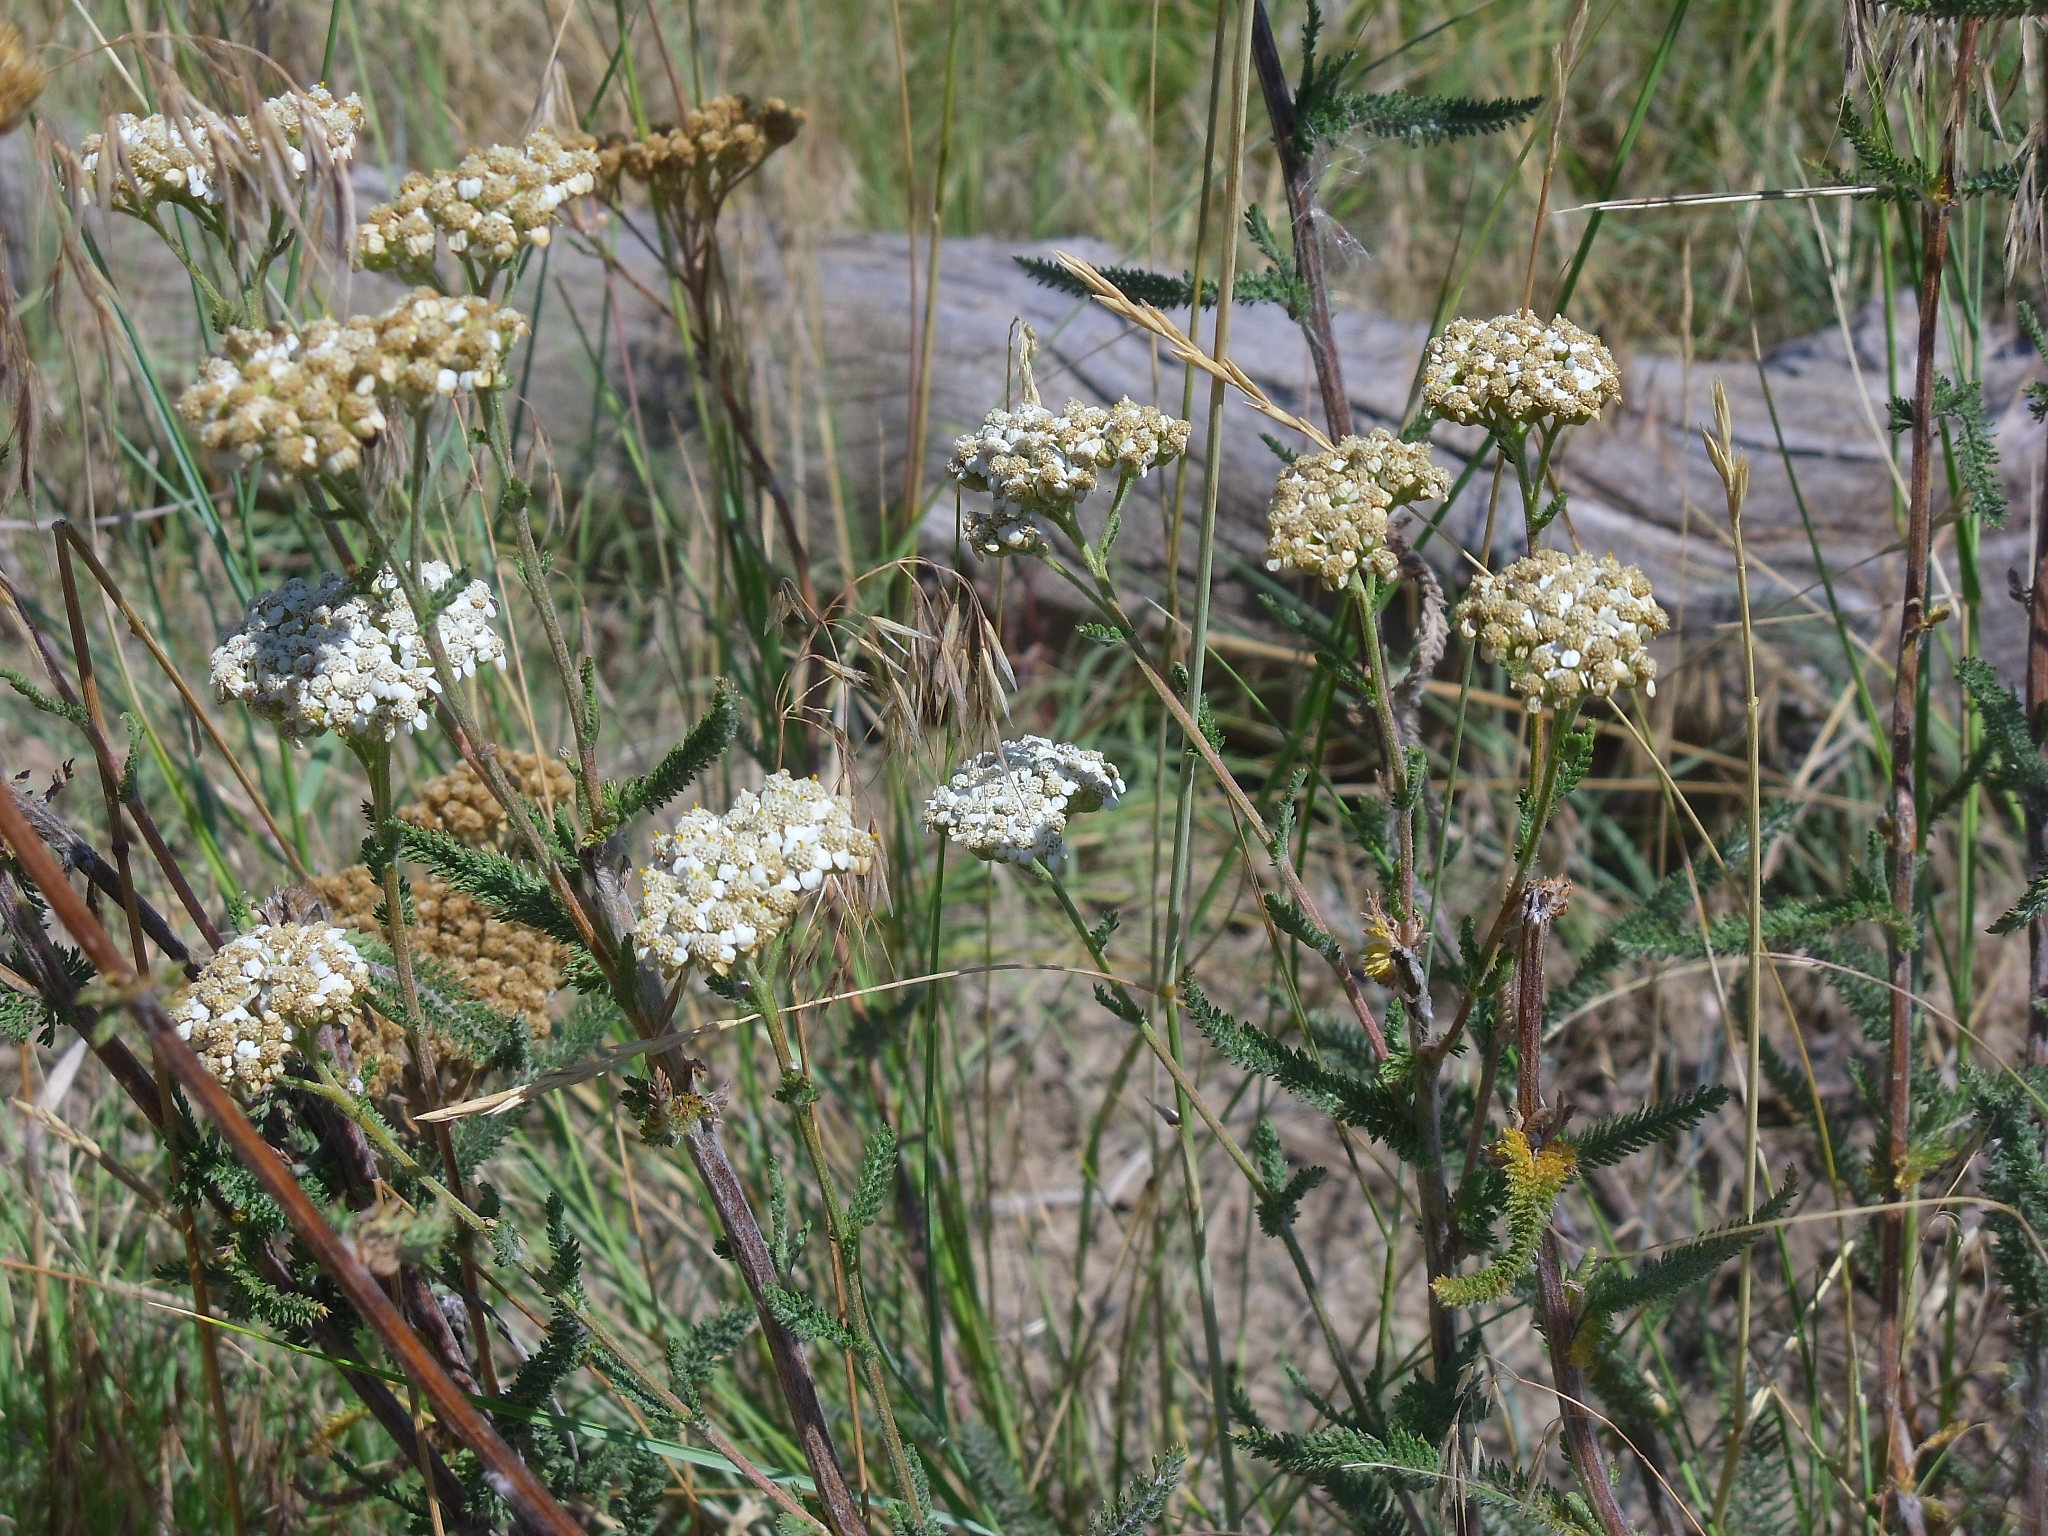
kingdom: Plantae
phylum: Tracheophyta
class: Magnoliopsida
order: Asterales
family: Asteraceae
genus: Achillea
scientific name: Achillea millefolium
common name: Yarrow
